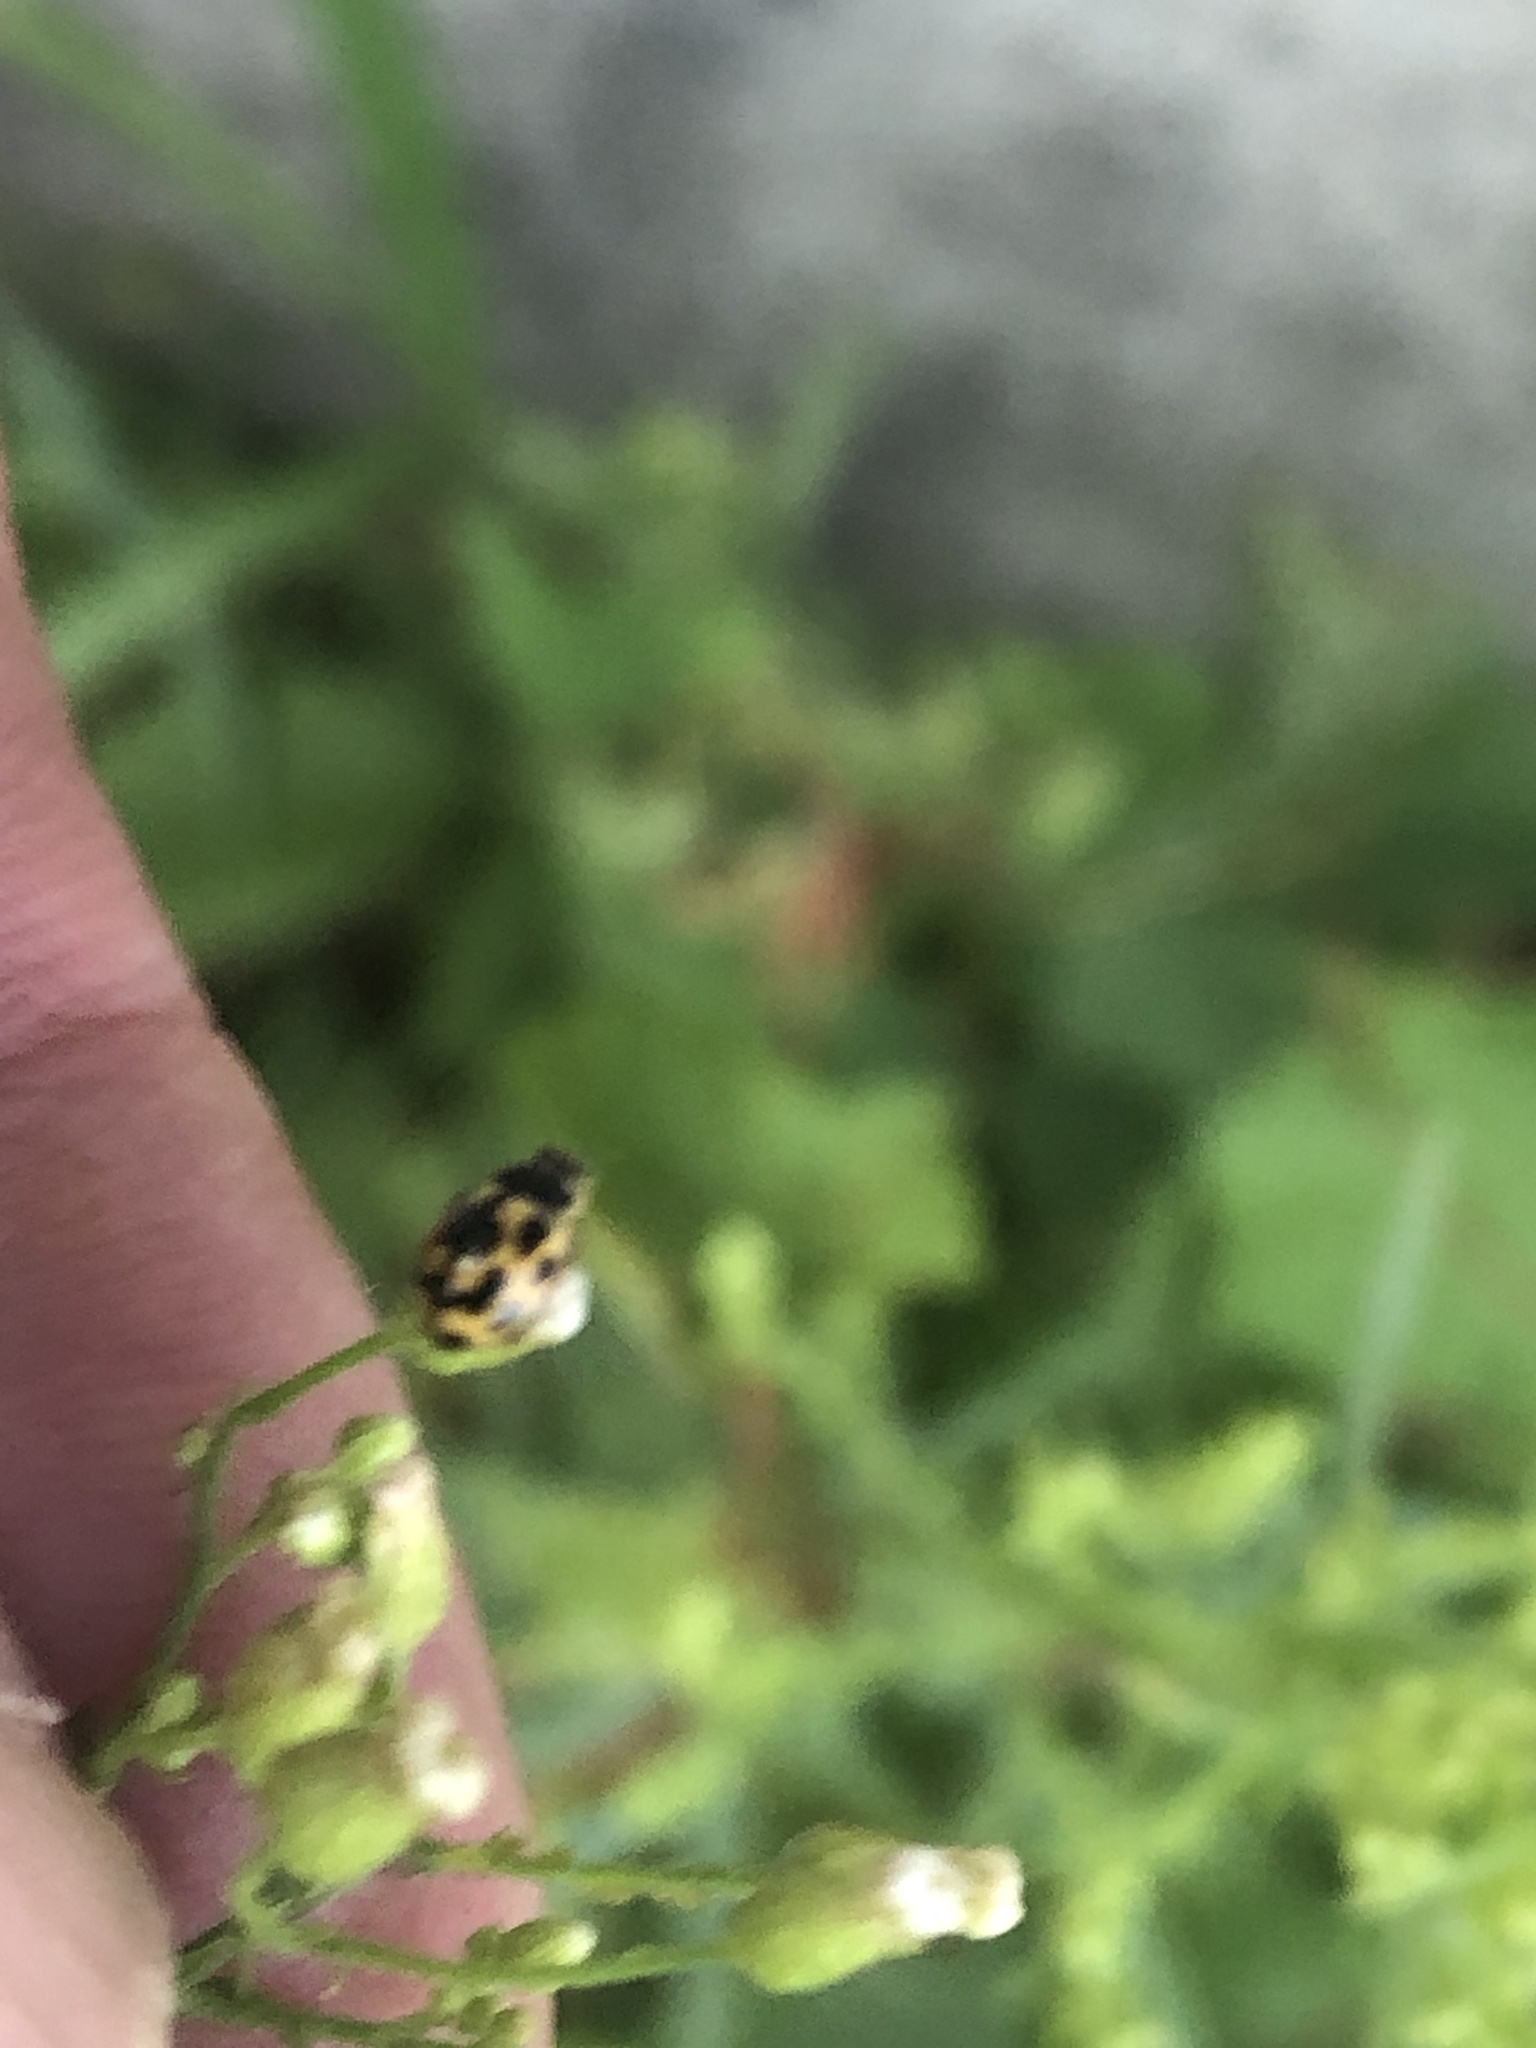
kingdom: Animalia
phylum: Arthropoda
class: Insecta
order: Coleoptera
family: Coccinellidae
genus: Propylaea
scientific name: Propylaea quatuordecimpunctata
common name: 14-spotted ladybird beetle
